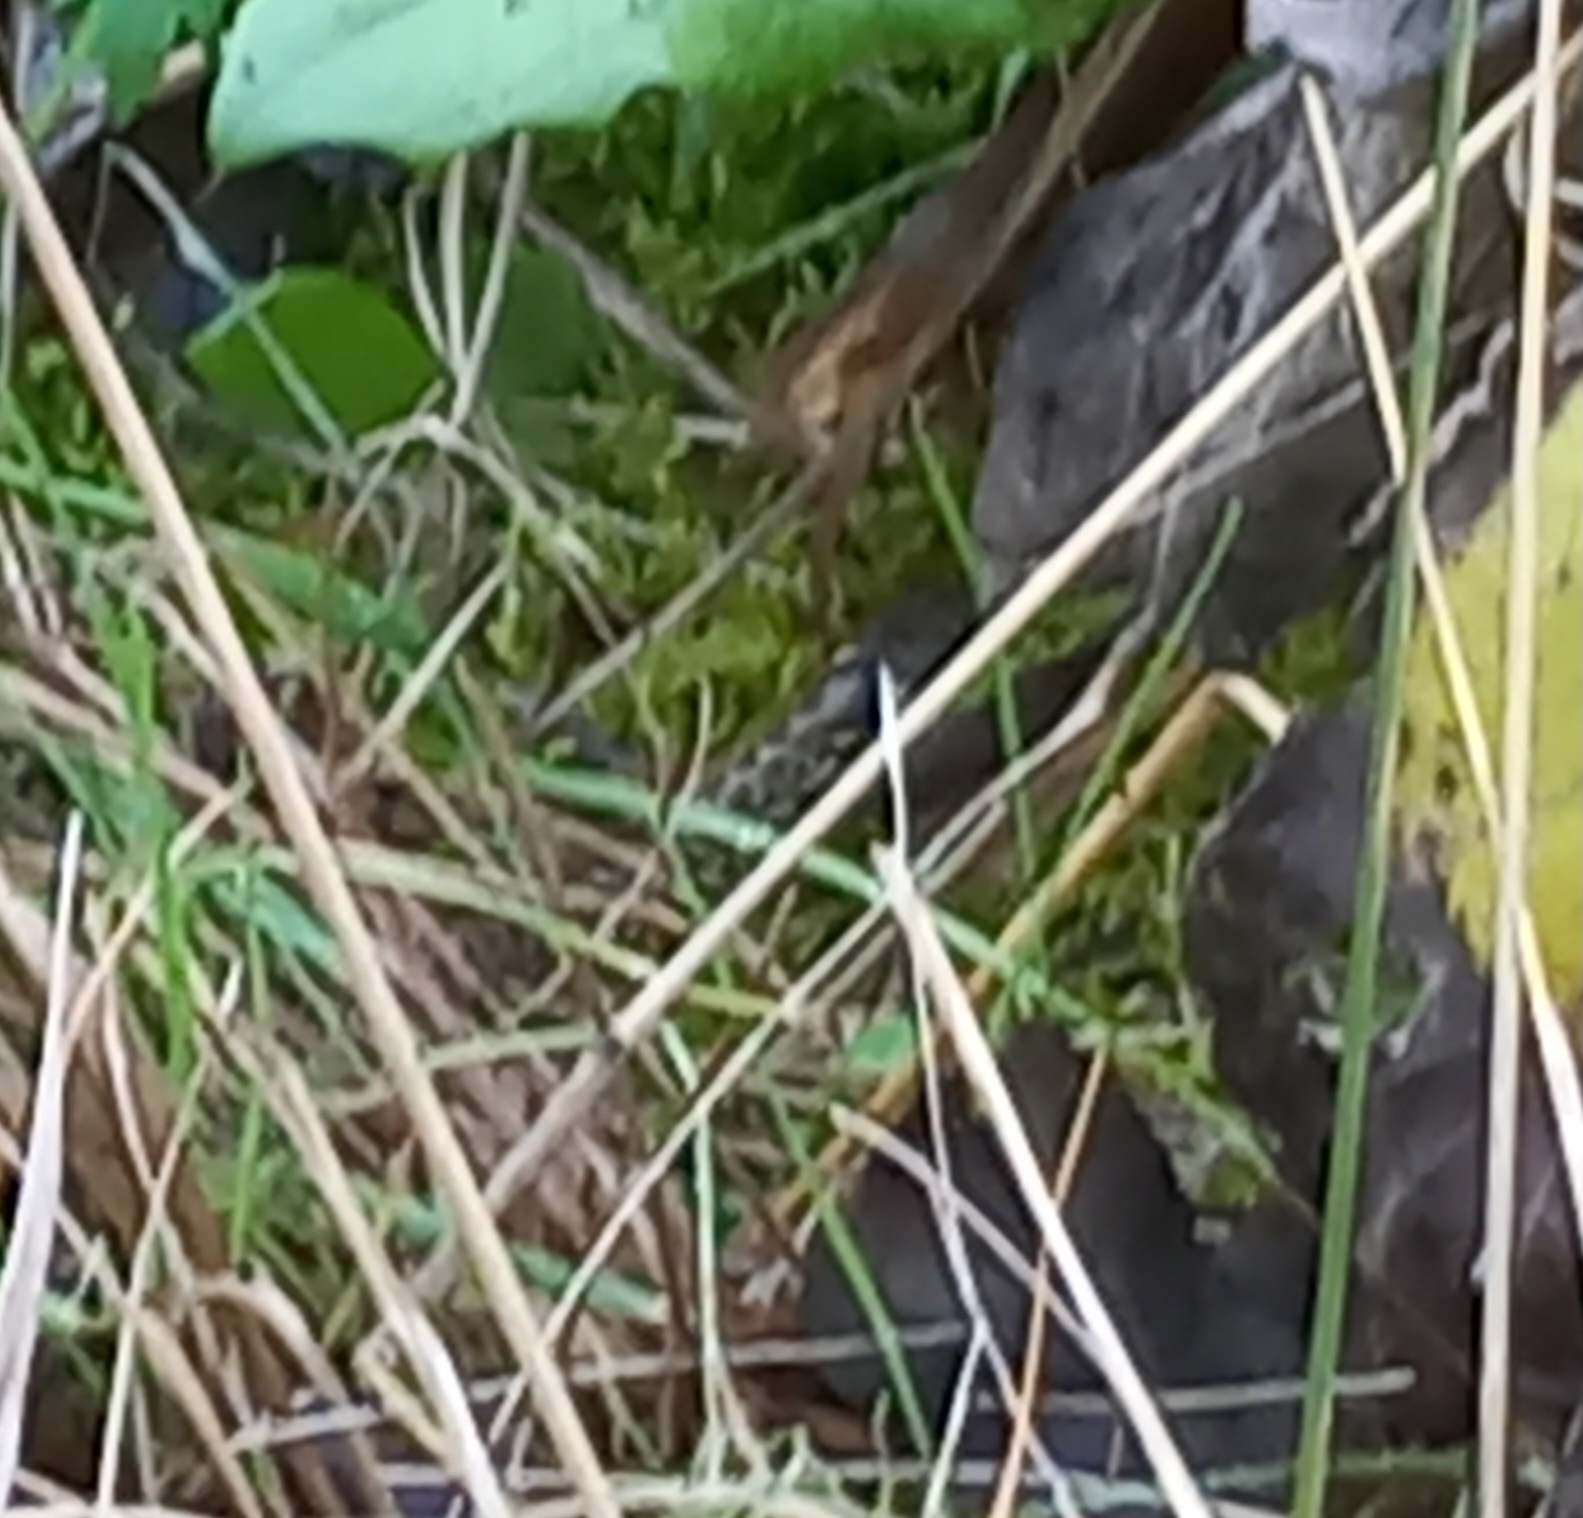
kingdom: Animalia
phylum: Chordata
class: Squamata
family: Colubridae
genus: Zamenis
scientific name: Zamenis longissimus
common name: Aesculapean snake
